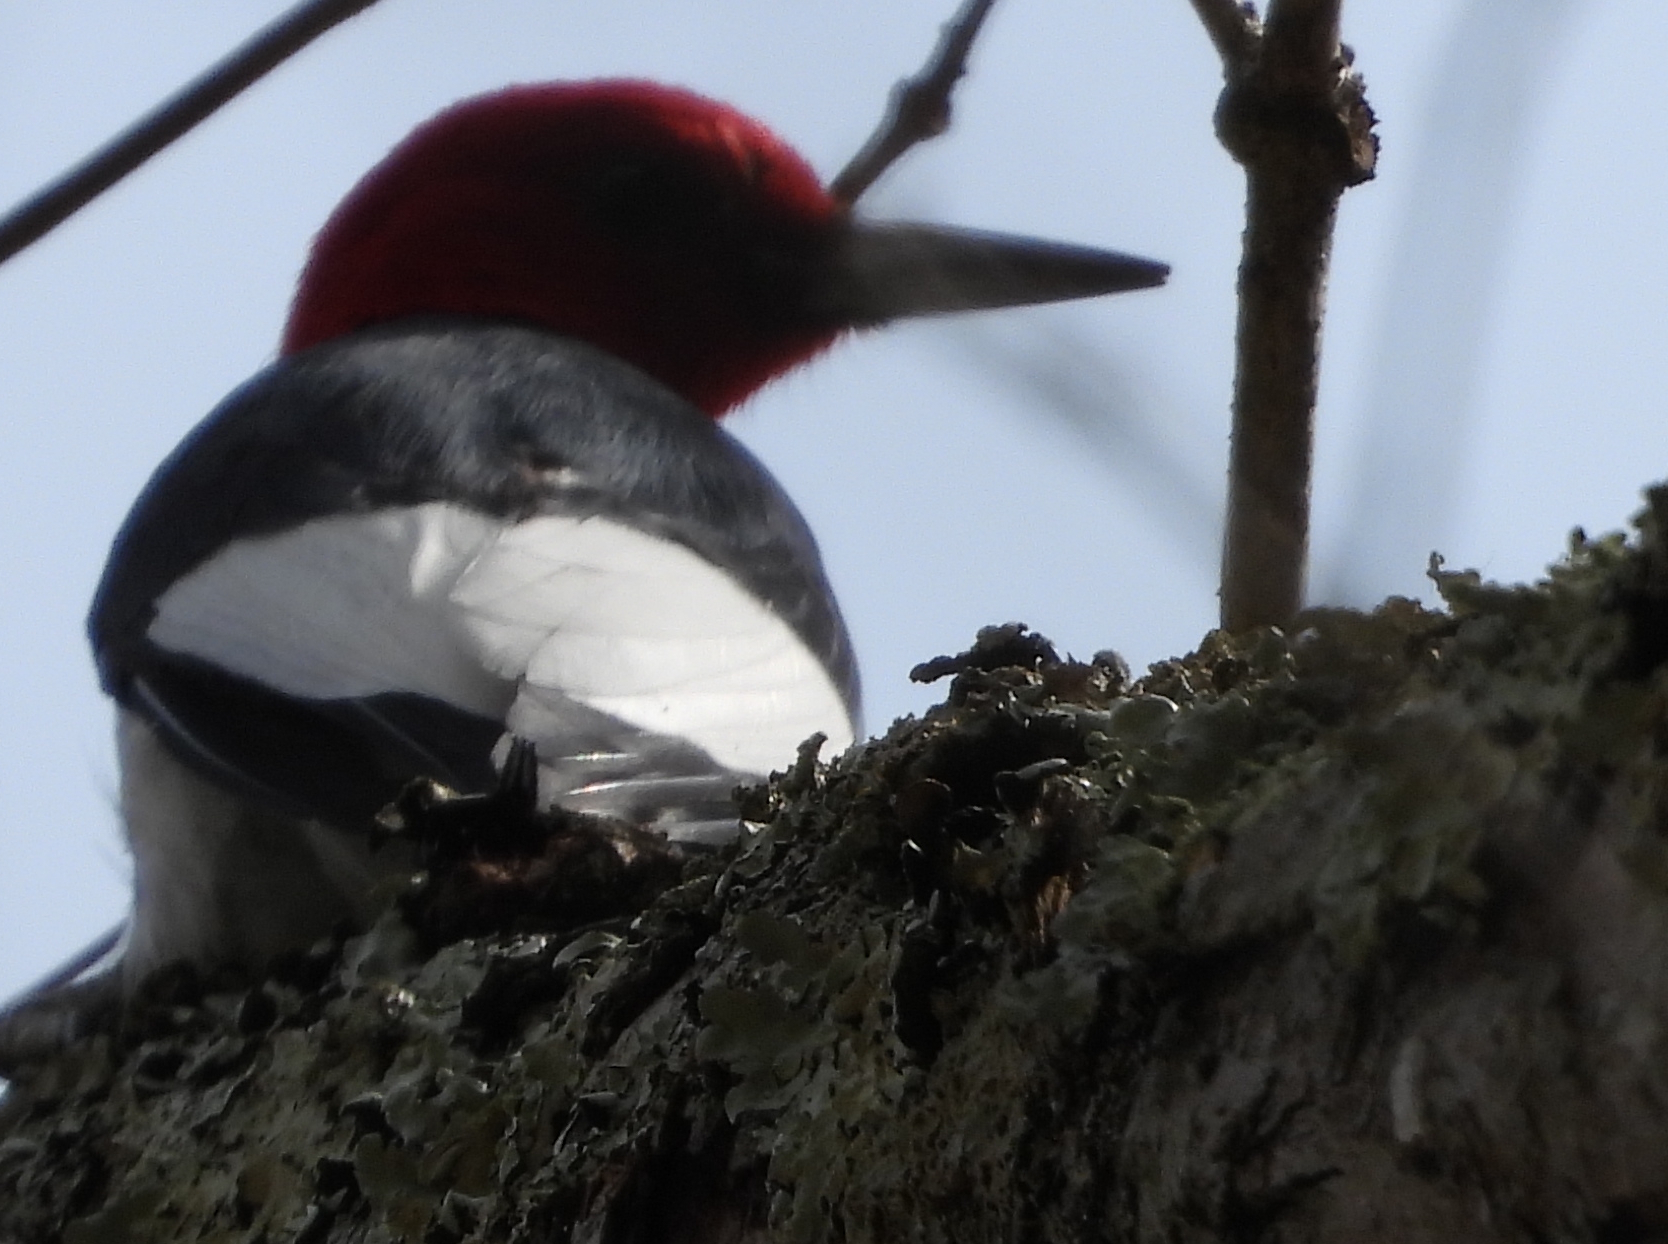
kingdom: Animalia
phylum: Chordata
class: Aves
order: Piciformes
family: Picidae
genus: Melanerpes
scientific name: Melanerpes erythrocephalus
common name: Red-headed woodpecker
